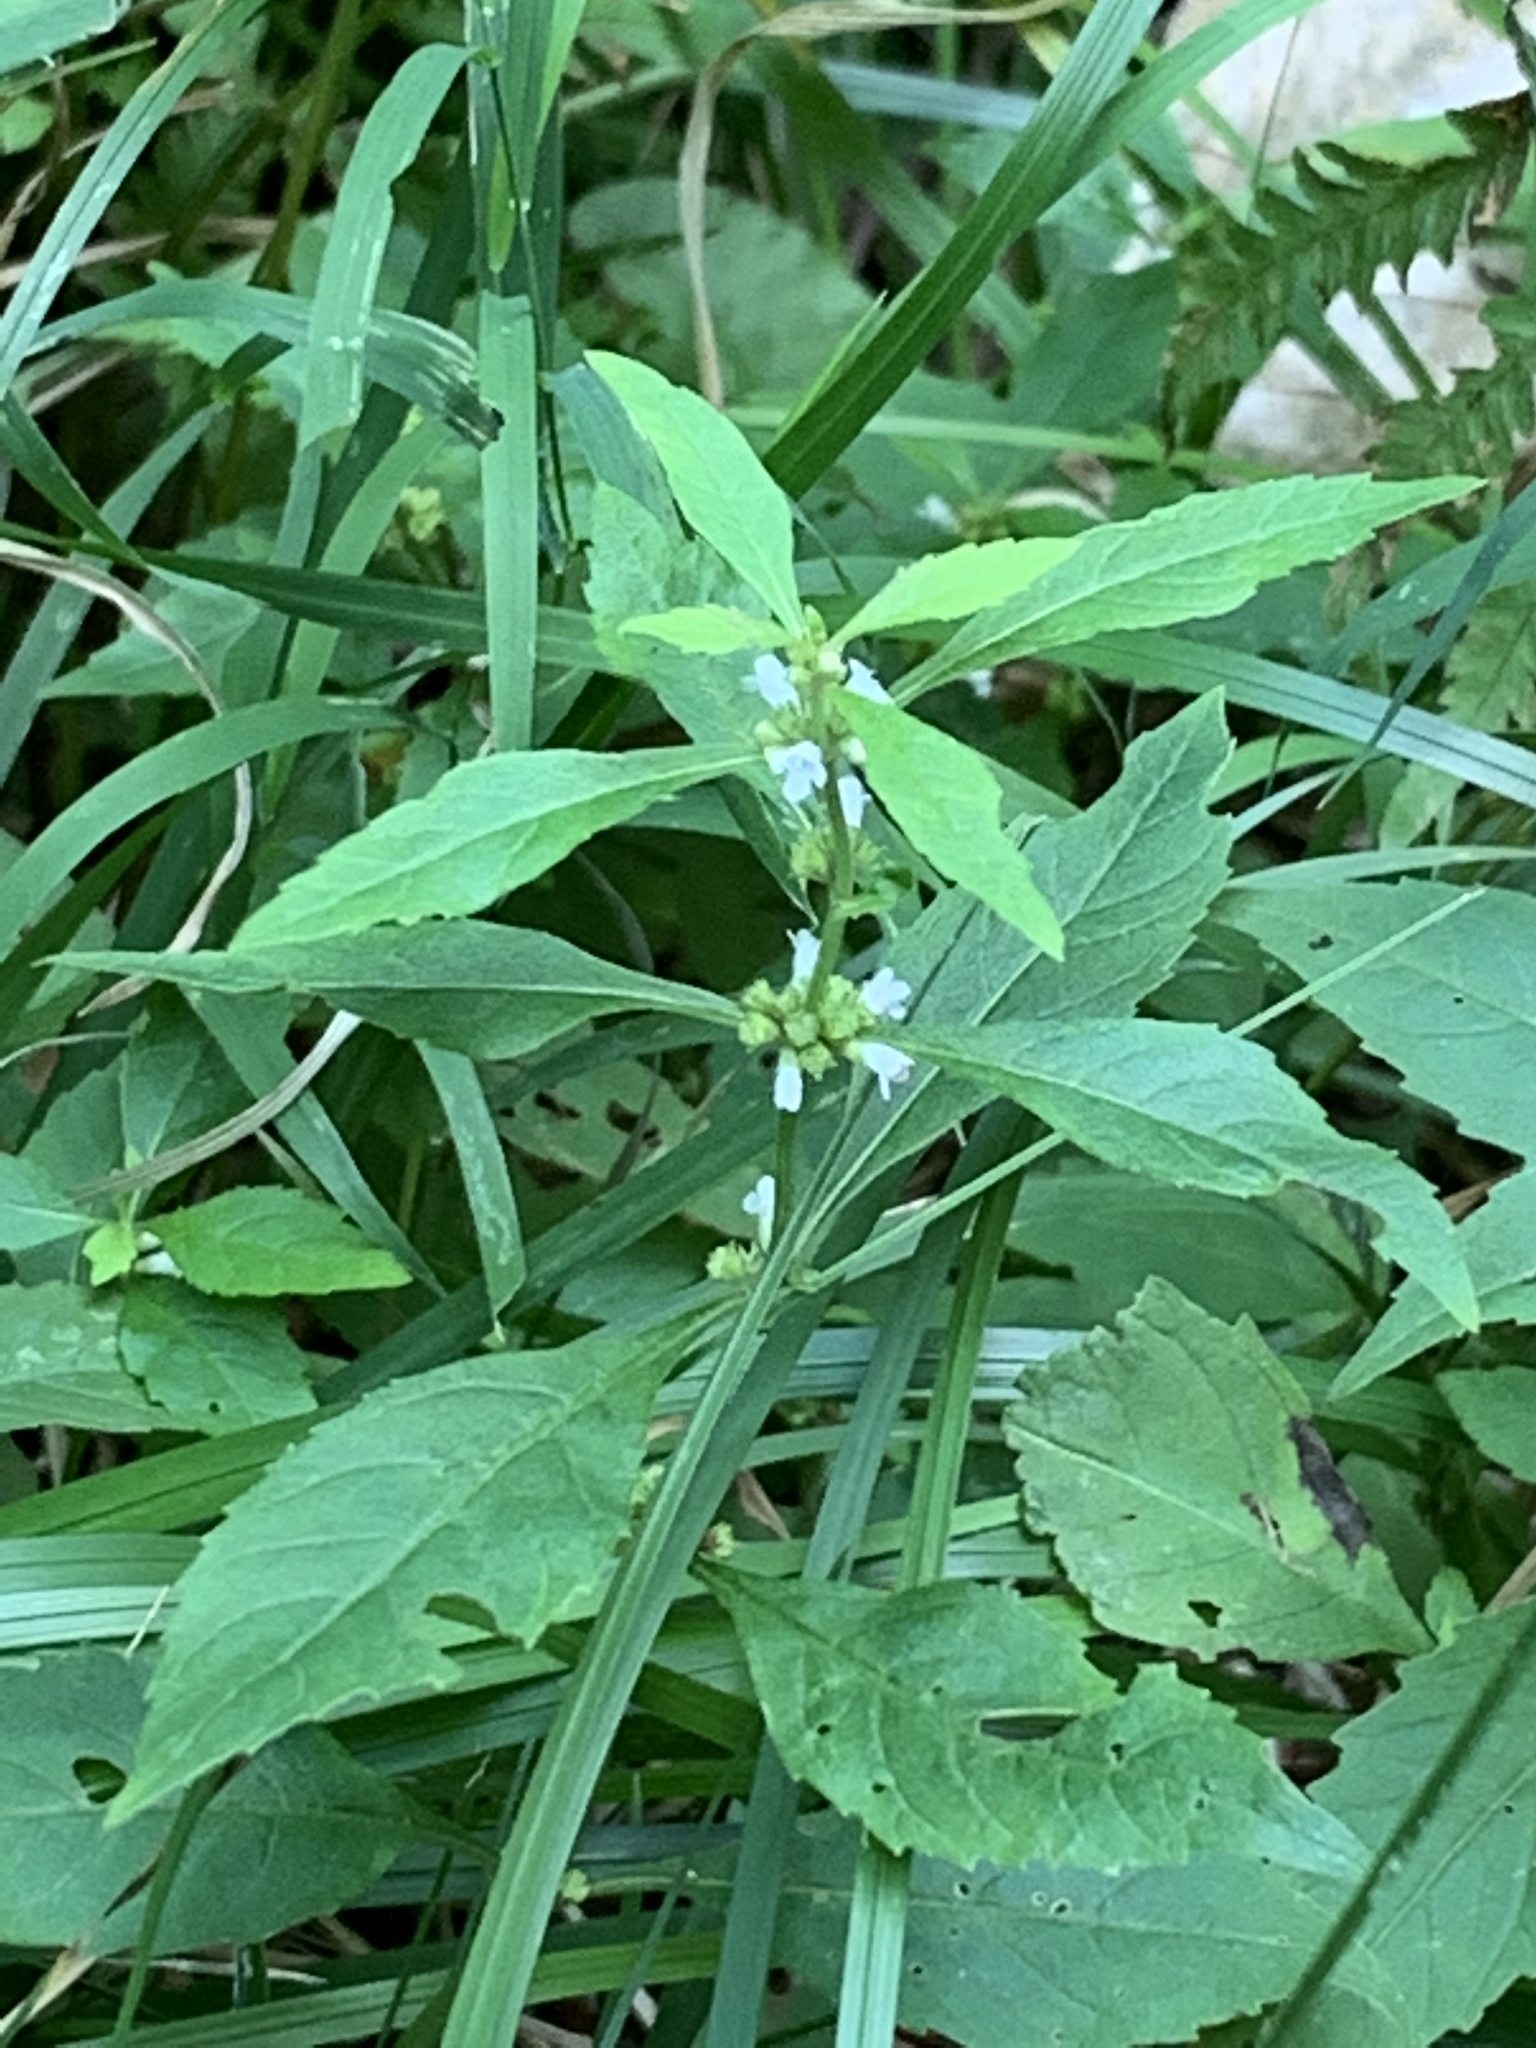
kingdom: Plantae
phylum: Tracheophyta
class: Magnoliopsida
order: Lamiales
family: Lamiaceae
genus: Lycopus
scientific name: Lycopus uniflorus
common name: Northern bugleweed
